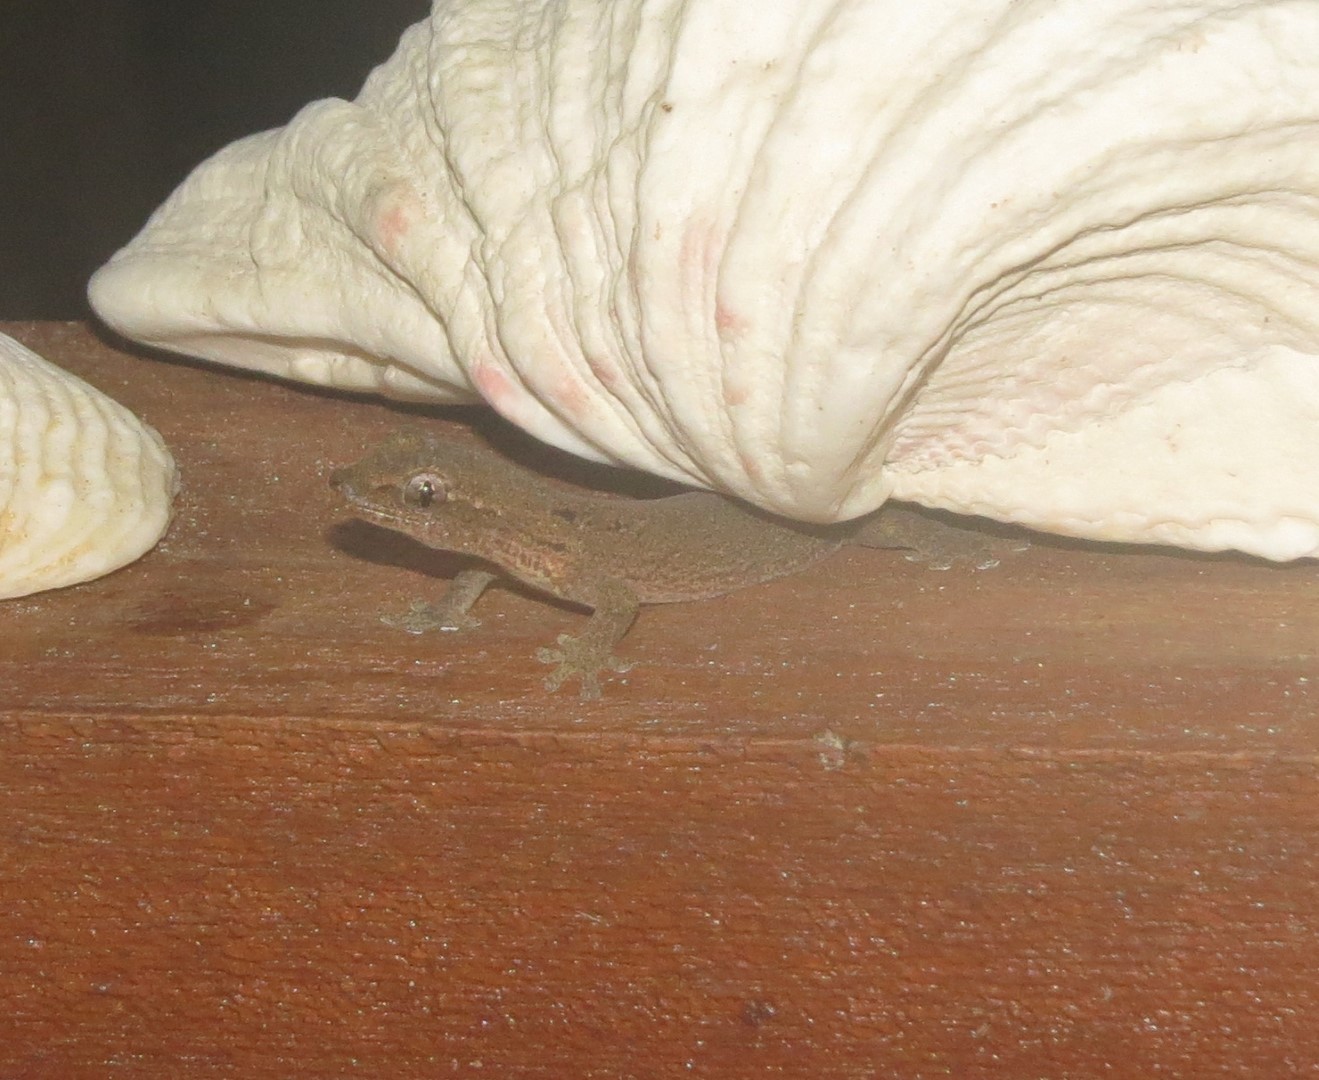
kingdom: Animalia
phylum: Chordata
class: Squamata
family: Gekkonidae
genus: Lepidodactylus
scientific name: Lepidodactylus lugubris
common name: Mourning gecko
